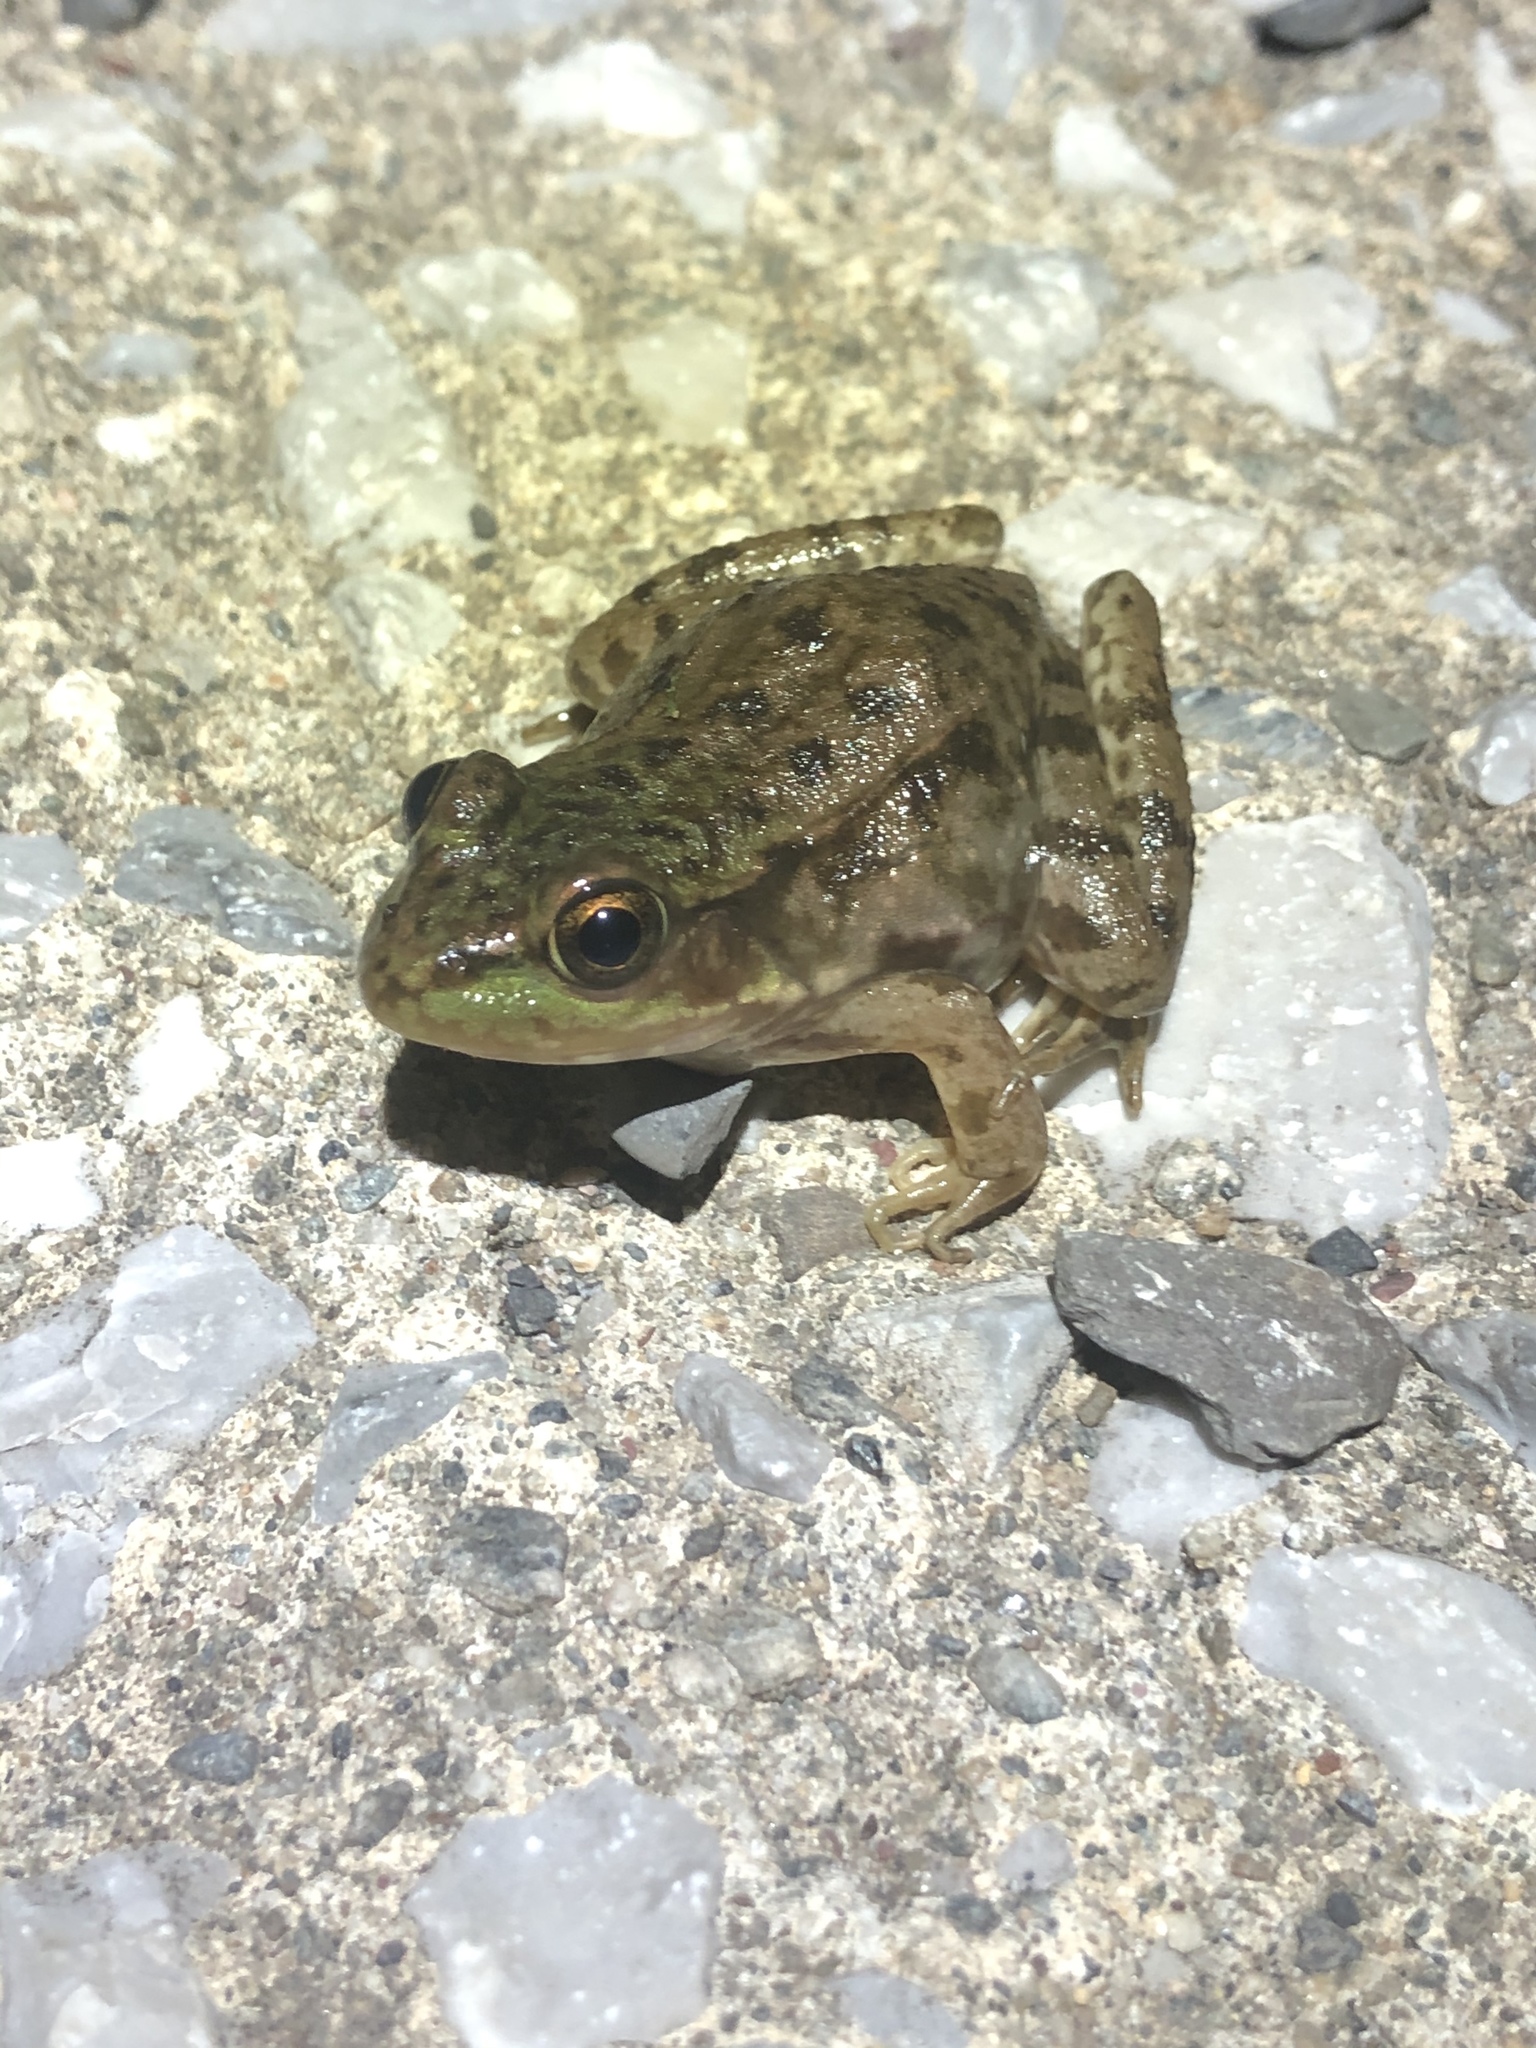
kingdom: Animalia
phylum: Chordata
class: Amphibia
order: Anura
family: Ranidae
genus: Lithobates
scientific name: Lithobates clamitans
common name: Green frog
